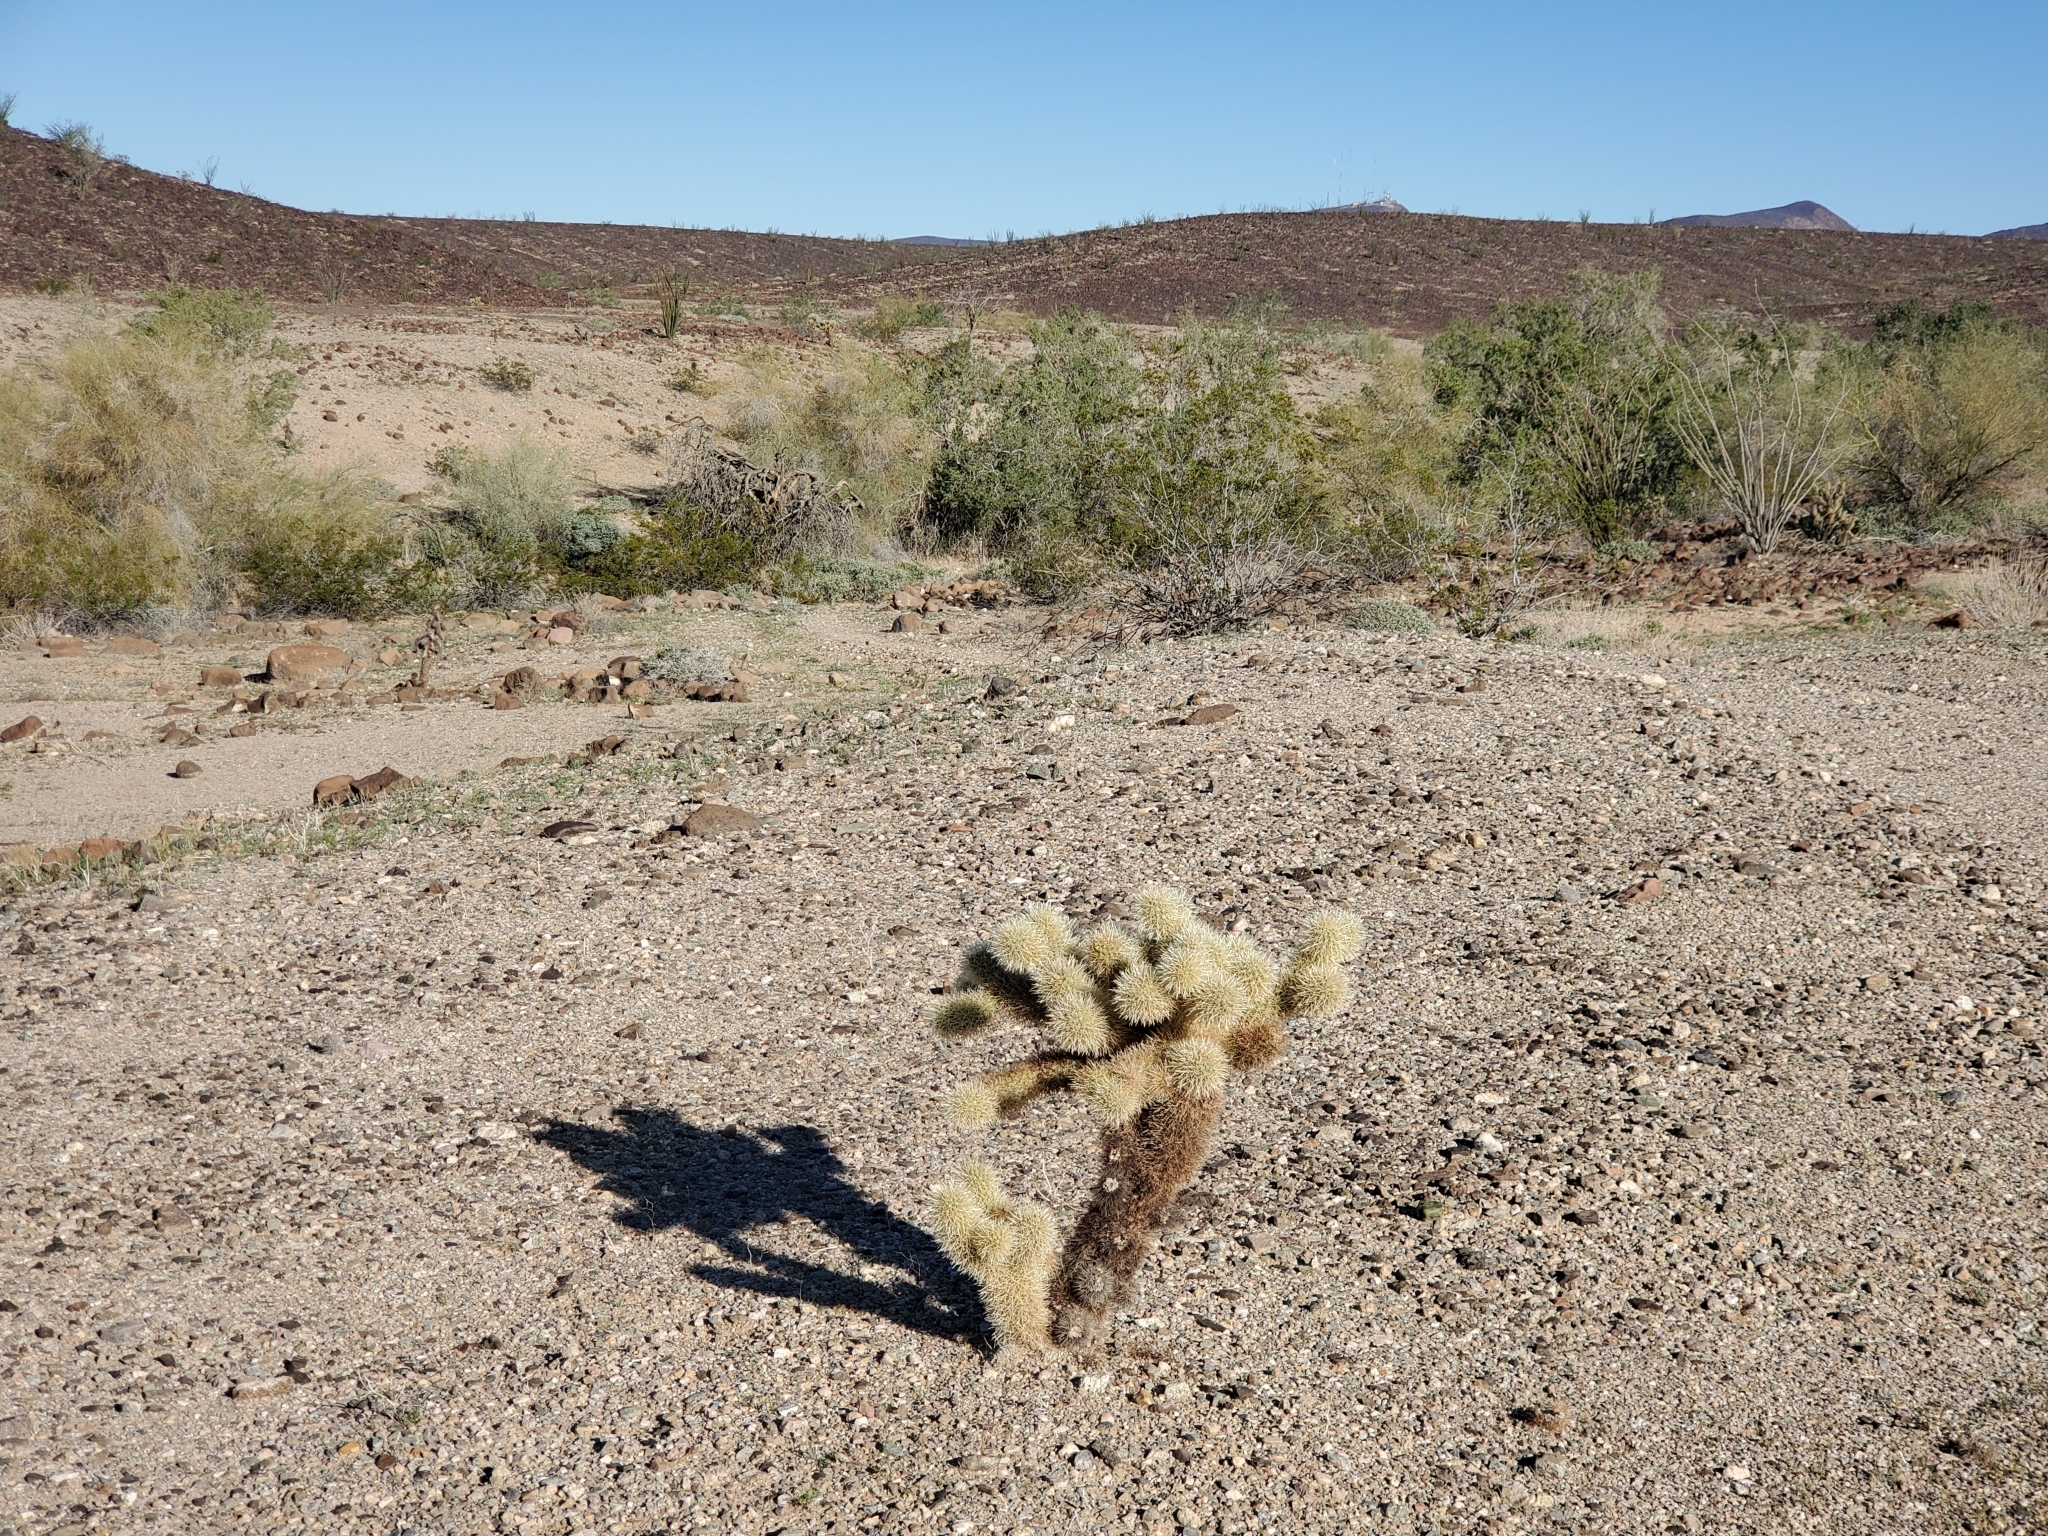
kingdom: Plantae
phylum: Tracheophyta
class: Magnoliopsida
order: Caryophyllales
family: Cactaceae
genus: Cylindropuntia
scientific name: Cylindropuntia fosbergii
